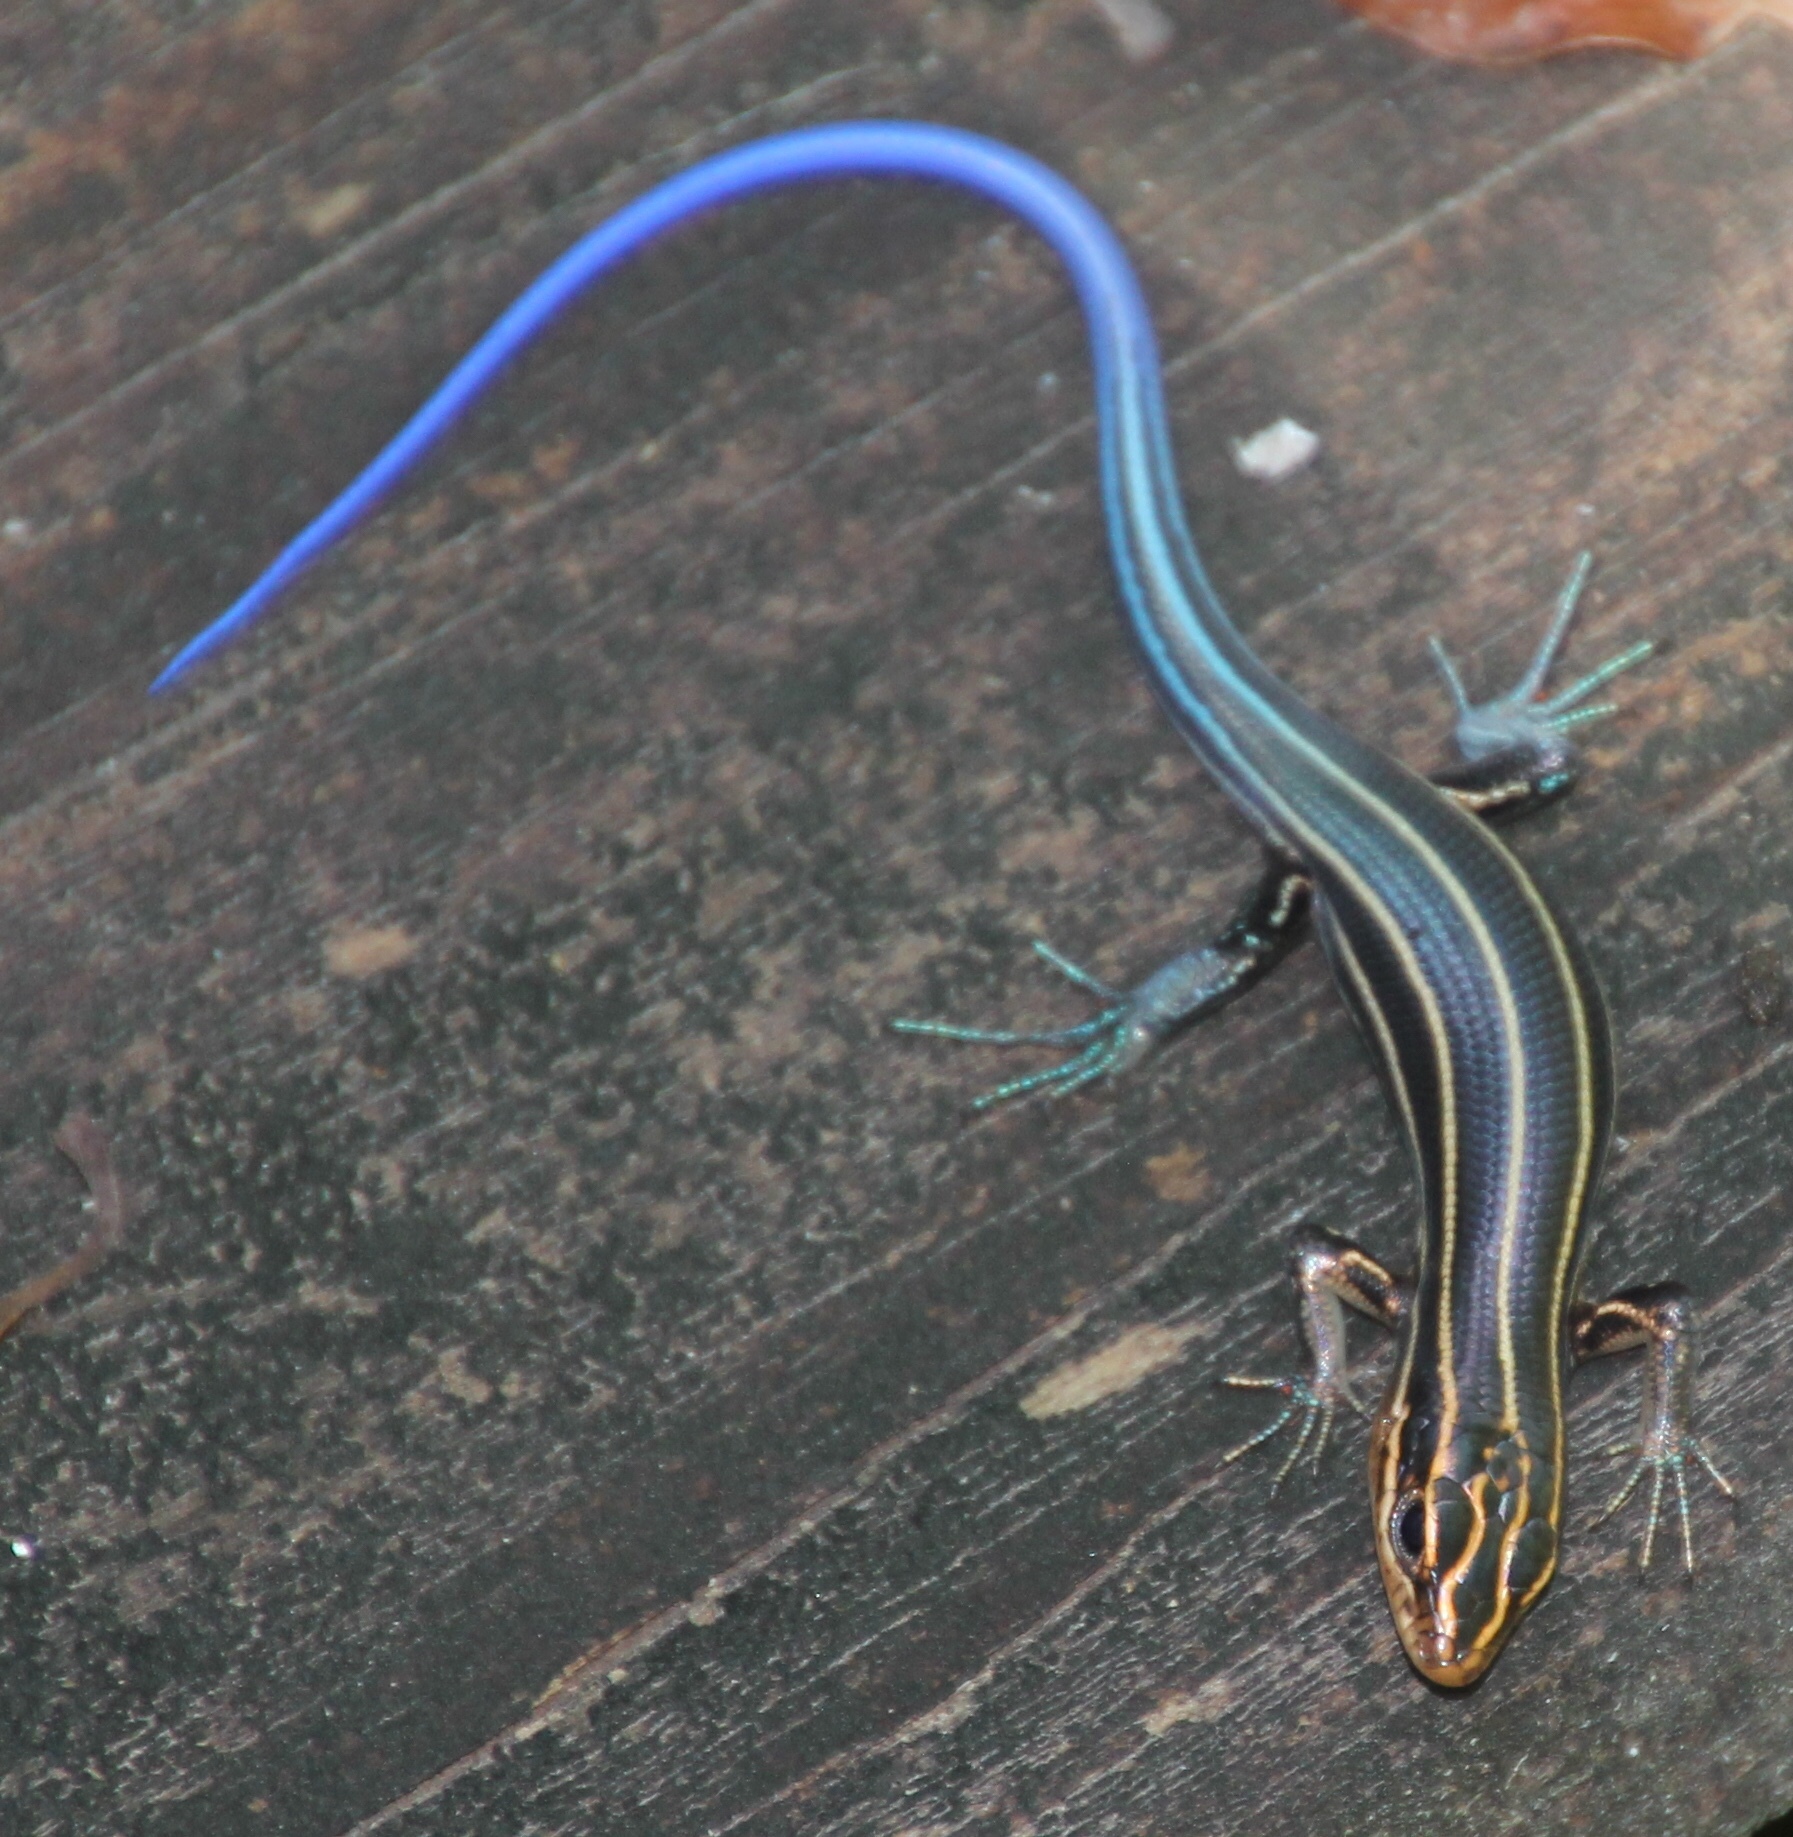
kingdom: Animalia
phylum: Chordata
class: Squamata
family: Scincidae
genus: Plestiodon
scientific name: Plestiodon laticeps
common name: Broadhead skink
